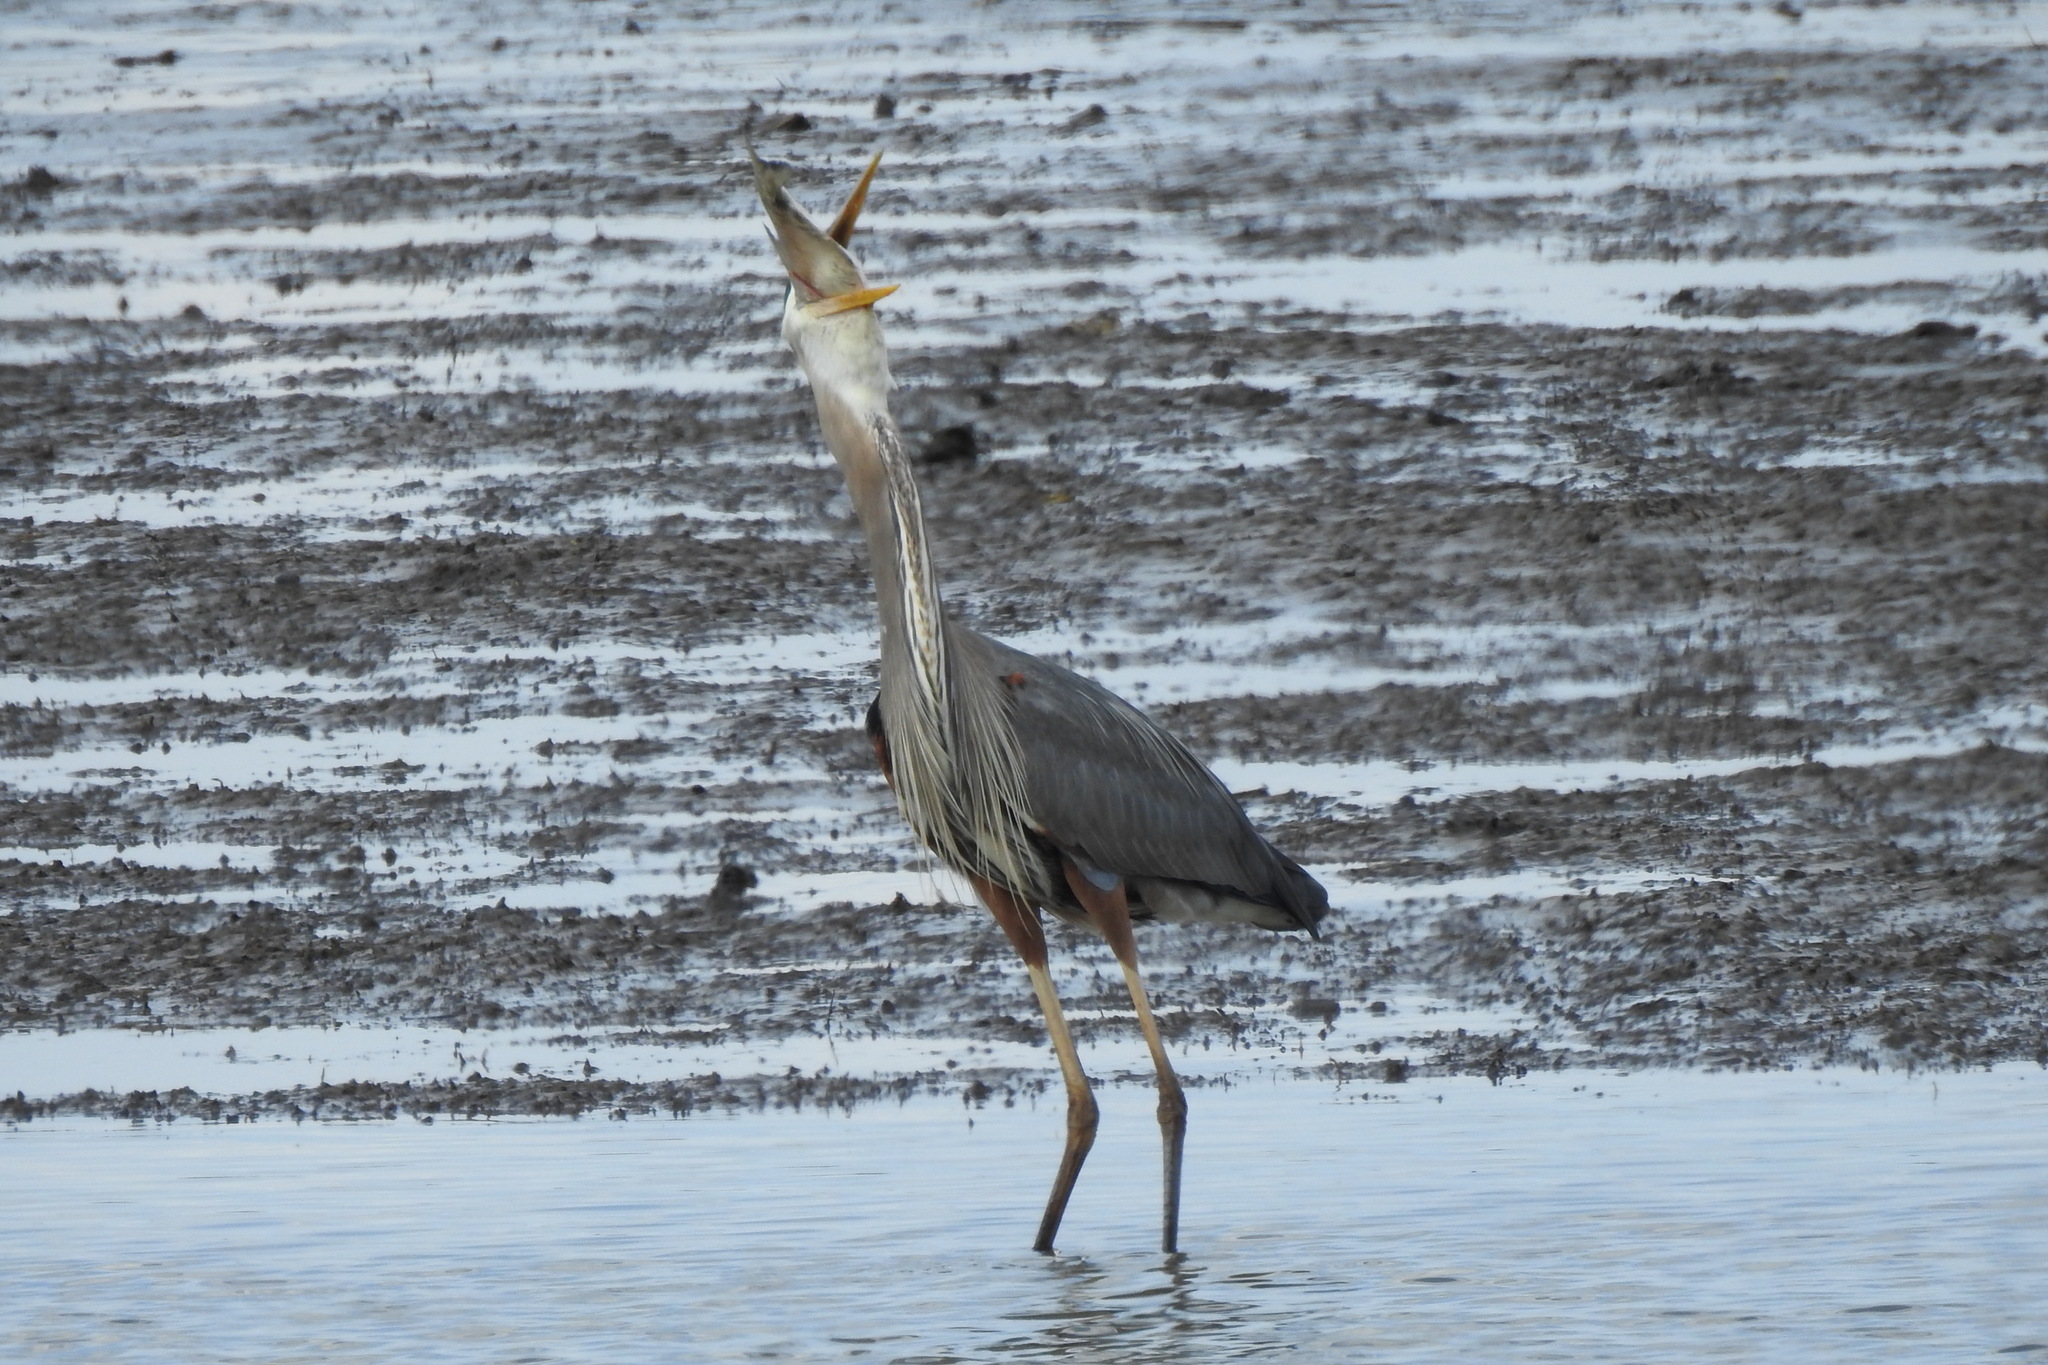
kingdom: Animalia
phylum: Chordata
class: Aves
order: Pelecaniformes
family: Ardeidae
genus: Ardea
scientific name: Ardea herodias
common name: Great blue heron
